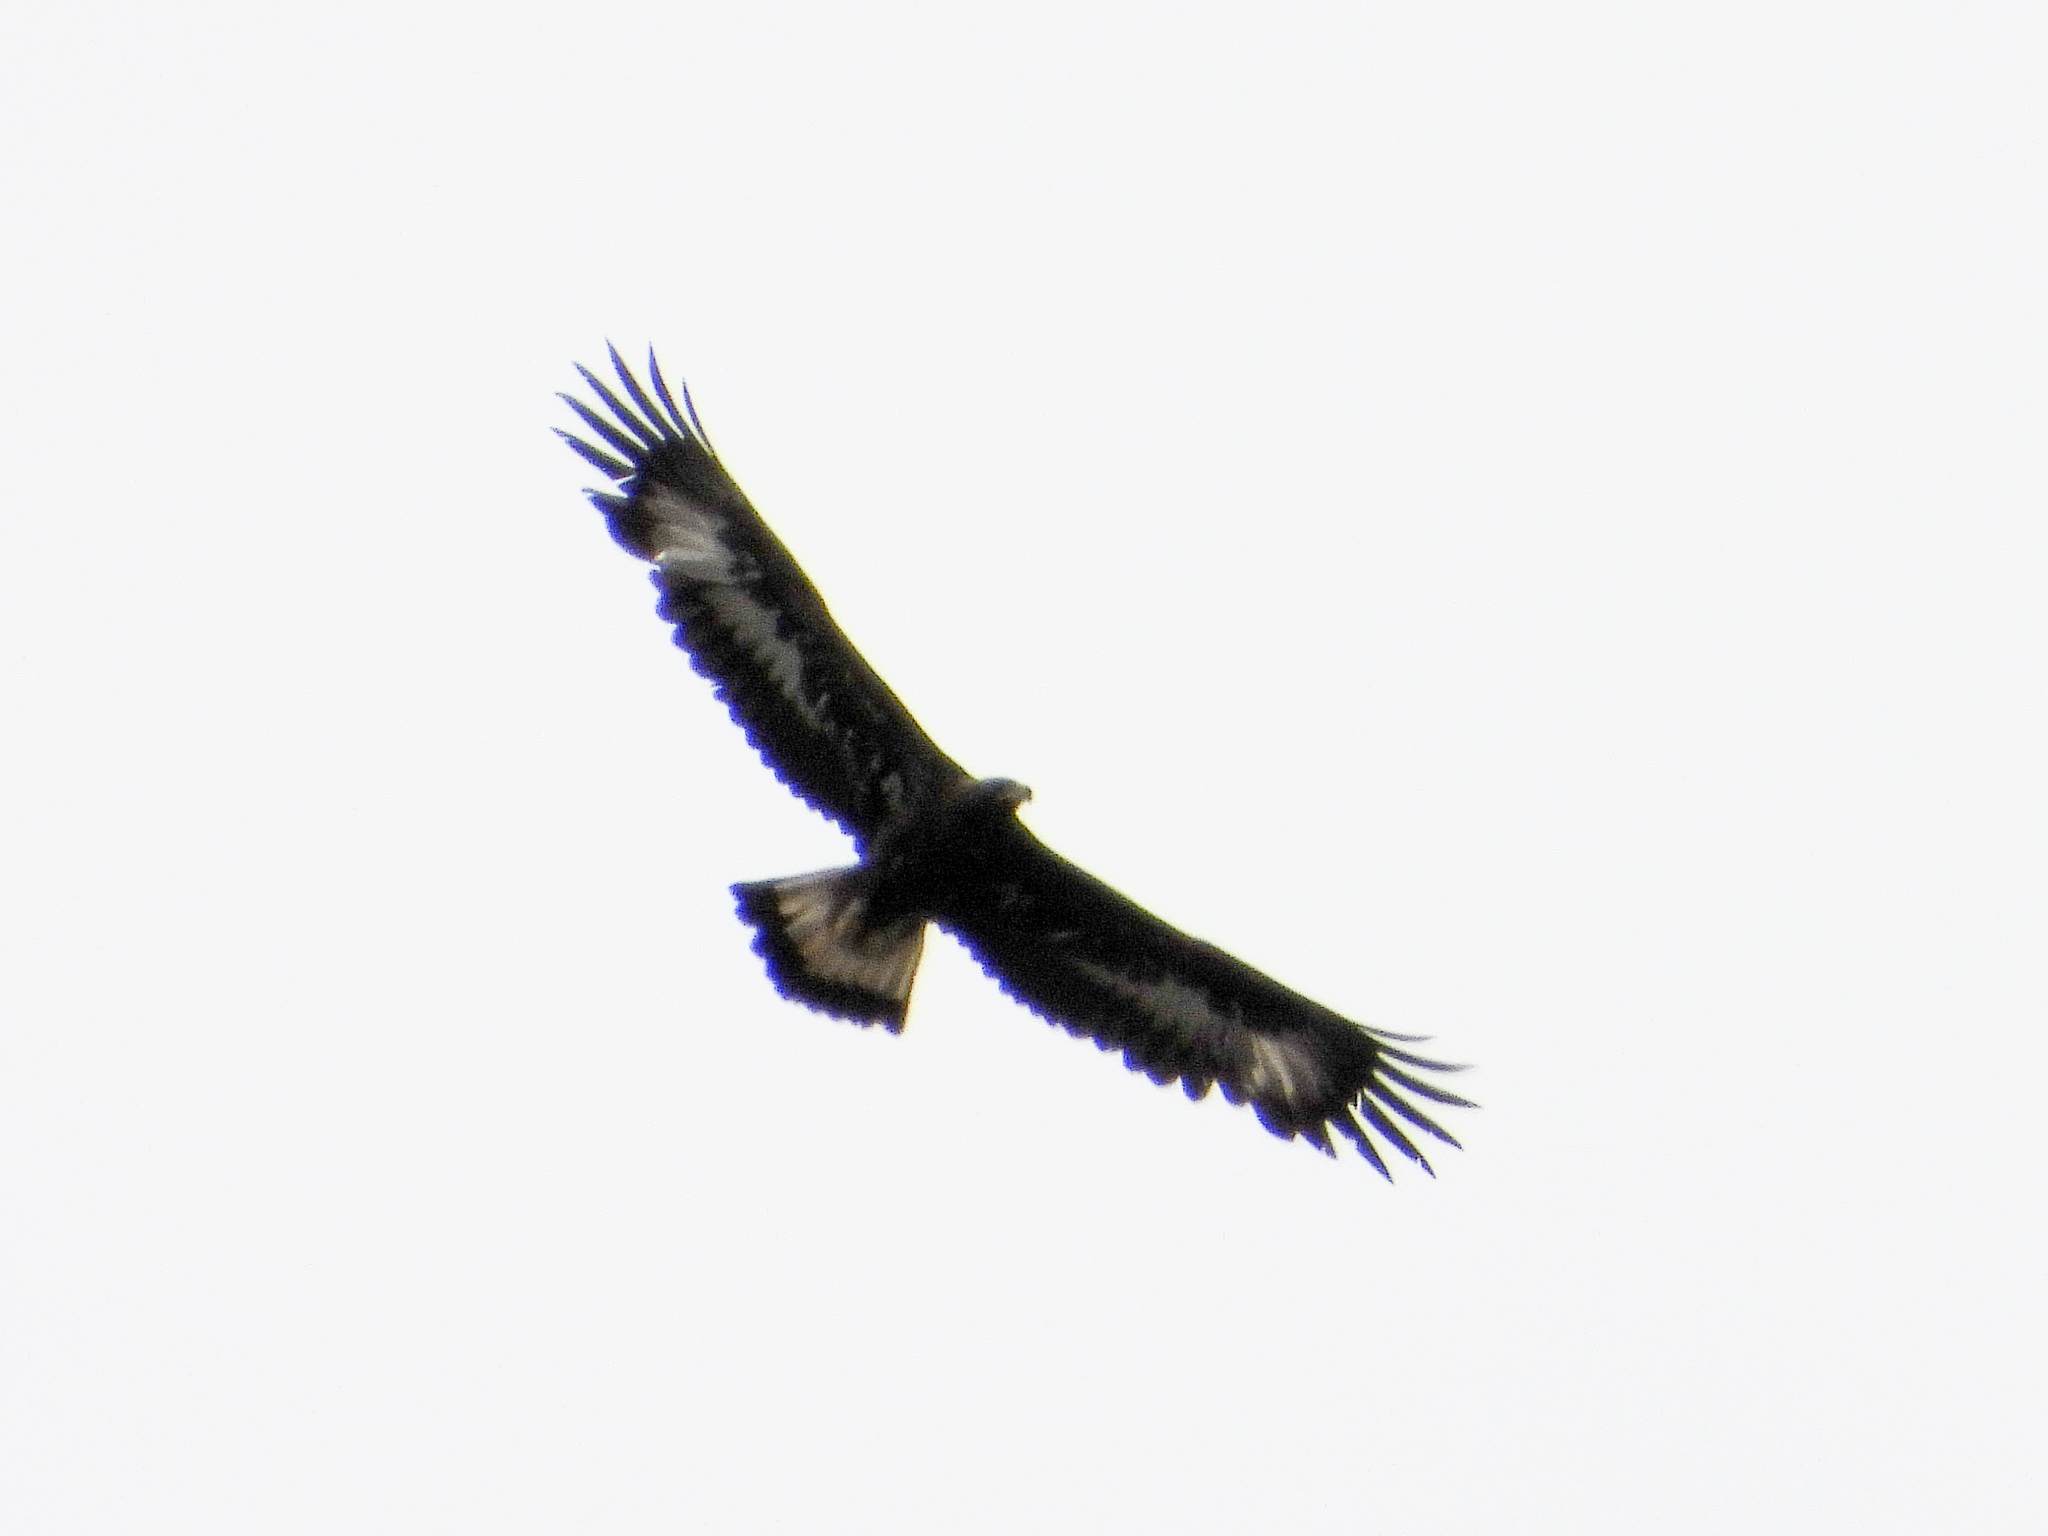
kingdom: Animalia
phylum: Chordata
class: Aves
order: Accipitriformes
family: Accipitridae
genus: Aquila
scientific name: Aquila chrysaetos
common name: Golden eagle
